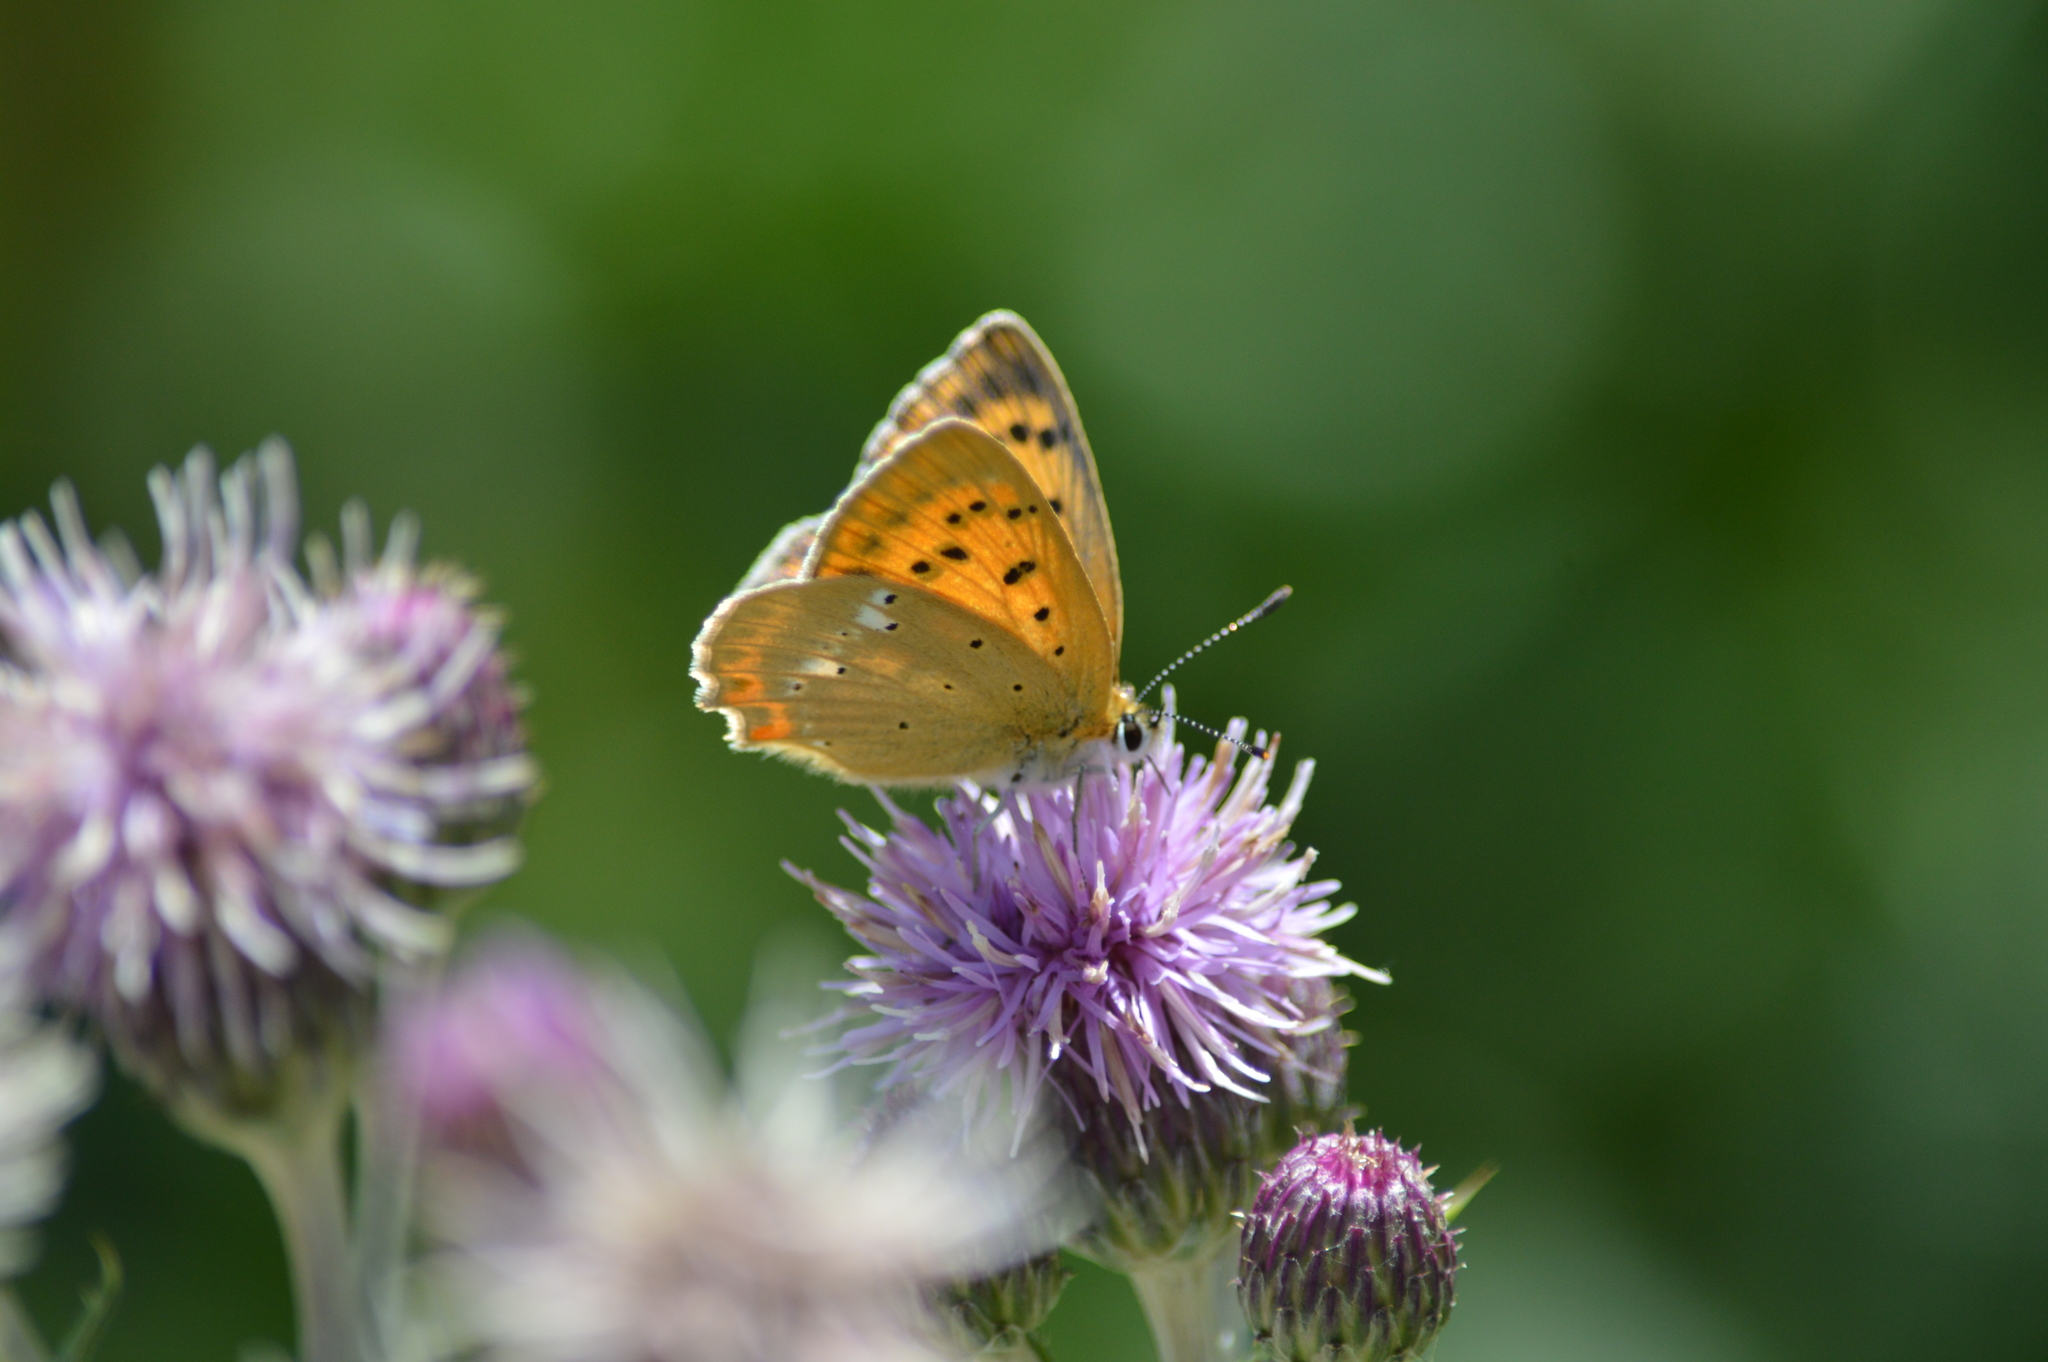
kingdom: Animalia
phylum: Arthropoda
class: Insecta
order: Lepidoptera
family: Lycaenidae
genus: Lycaena
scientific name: Lycaena virgaureae
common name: Scarce copper
